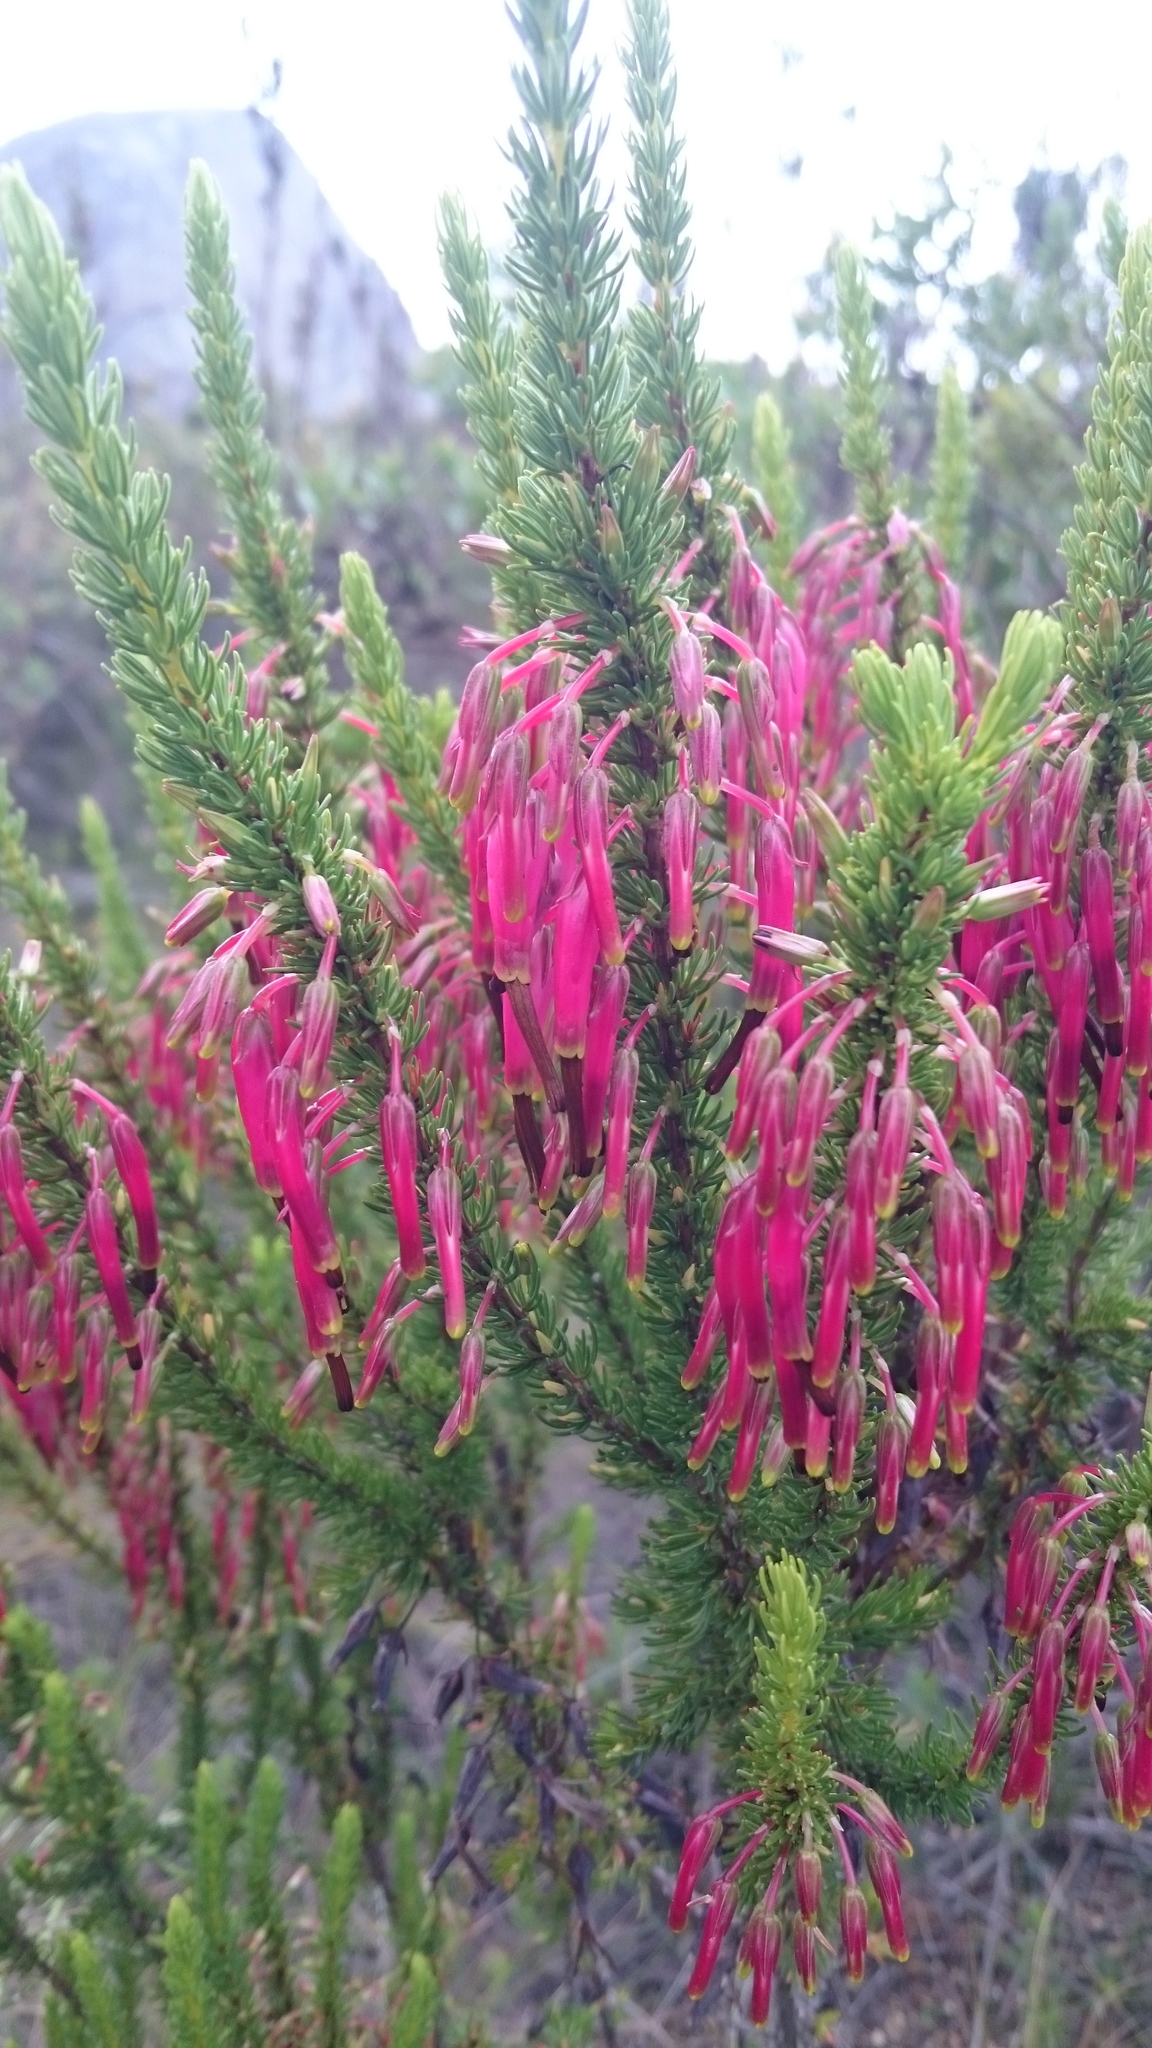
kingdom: Plantae
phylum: Tracheophyta
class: Magnoliopsida
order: Ericales
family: Ericaceae
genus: Erica
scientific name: Erica plukenetii
